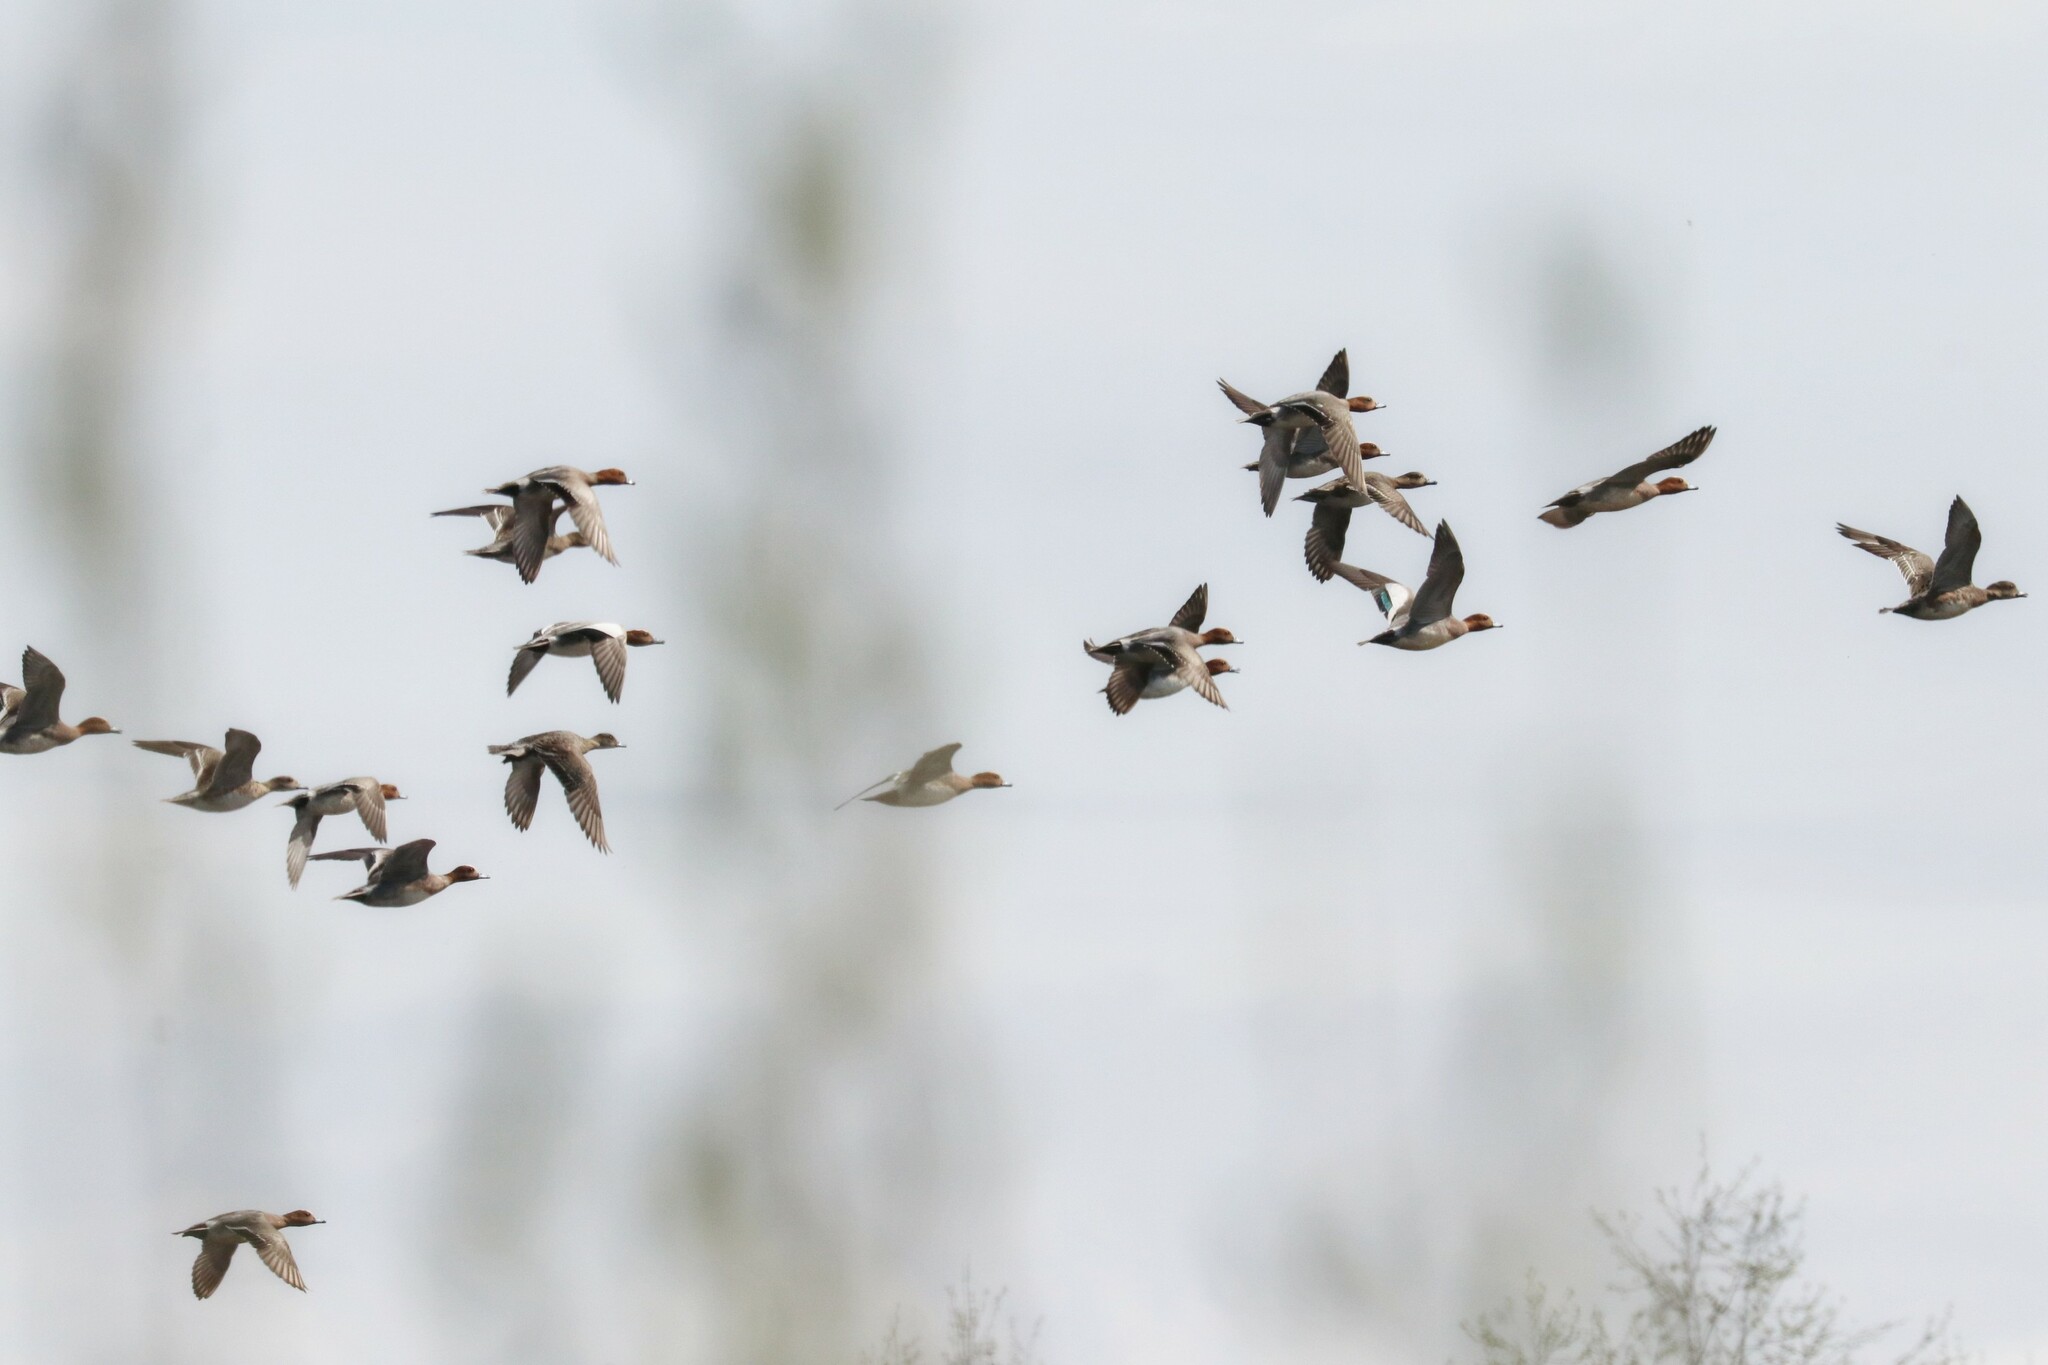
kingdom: Animalia
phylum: Chordata
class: Aves
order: Anseriformes
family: Anatidae
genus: Mareca
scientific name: Mareca penelope
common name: Eurasian wigeon
